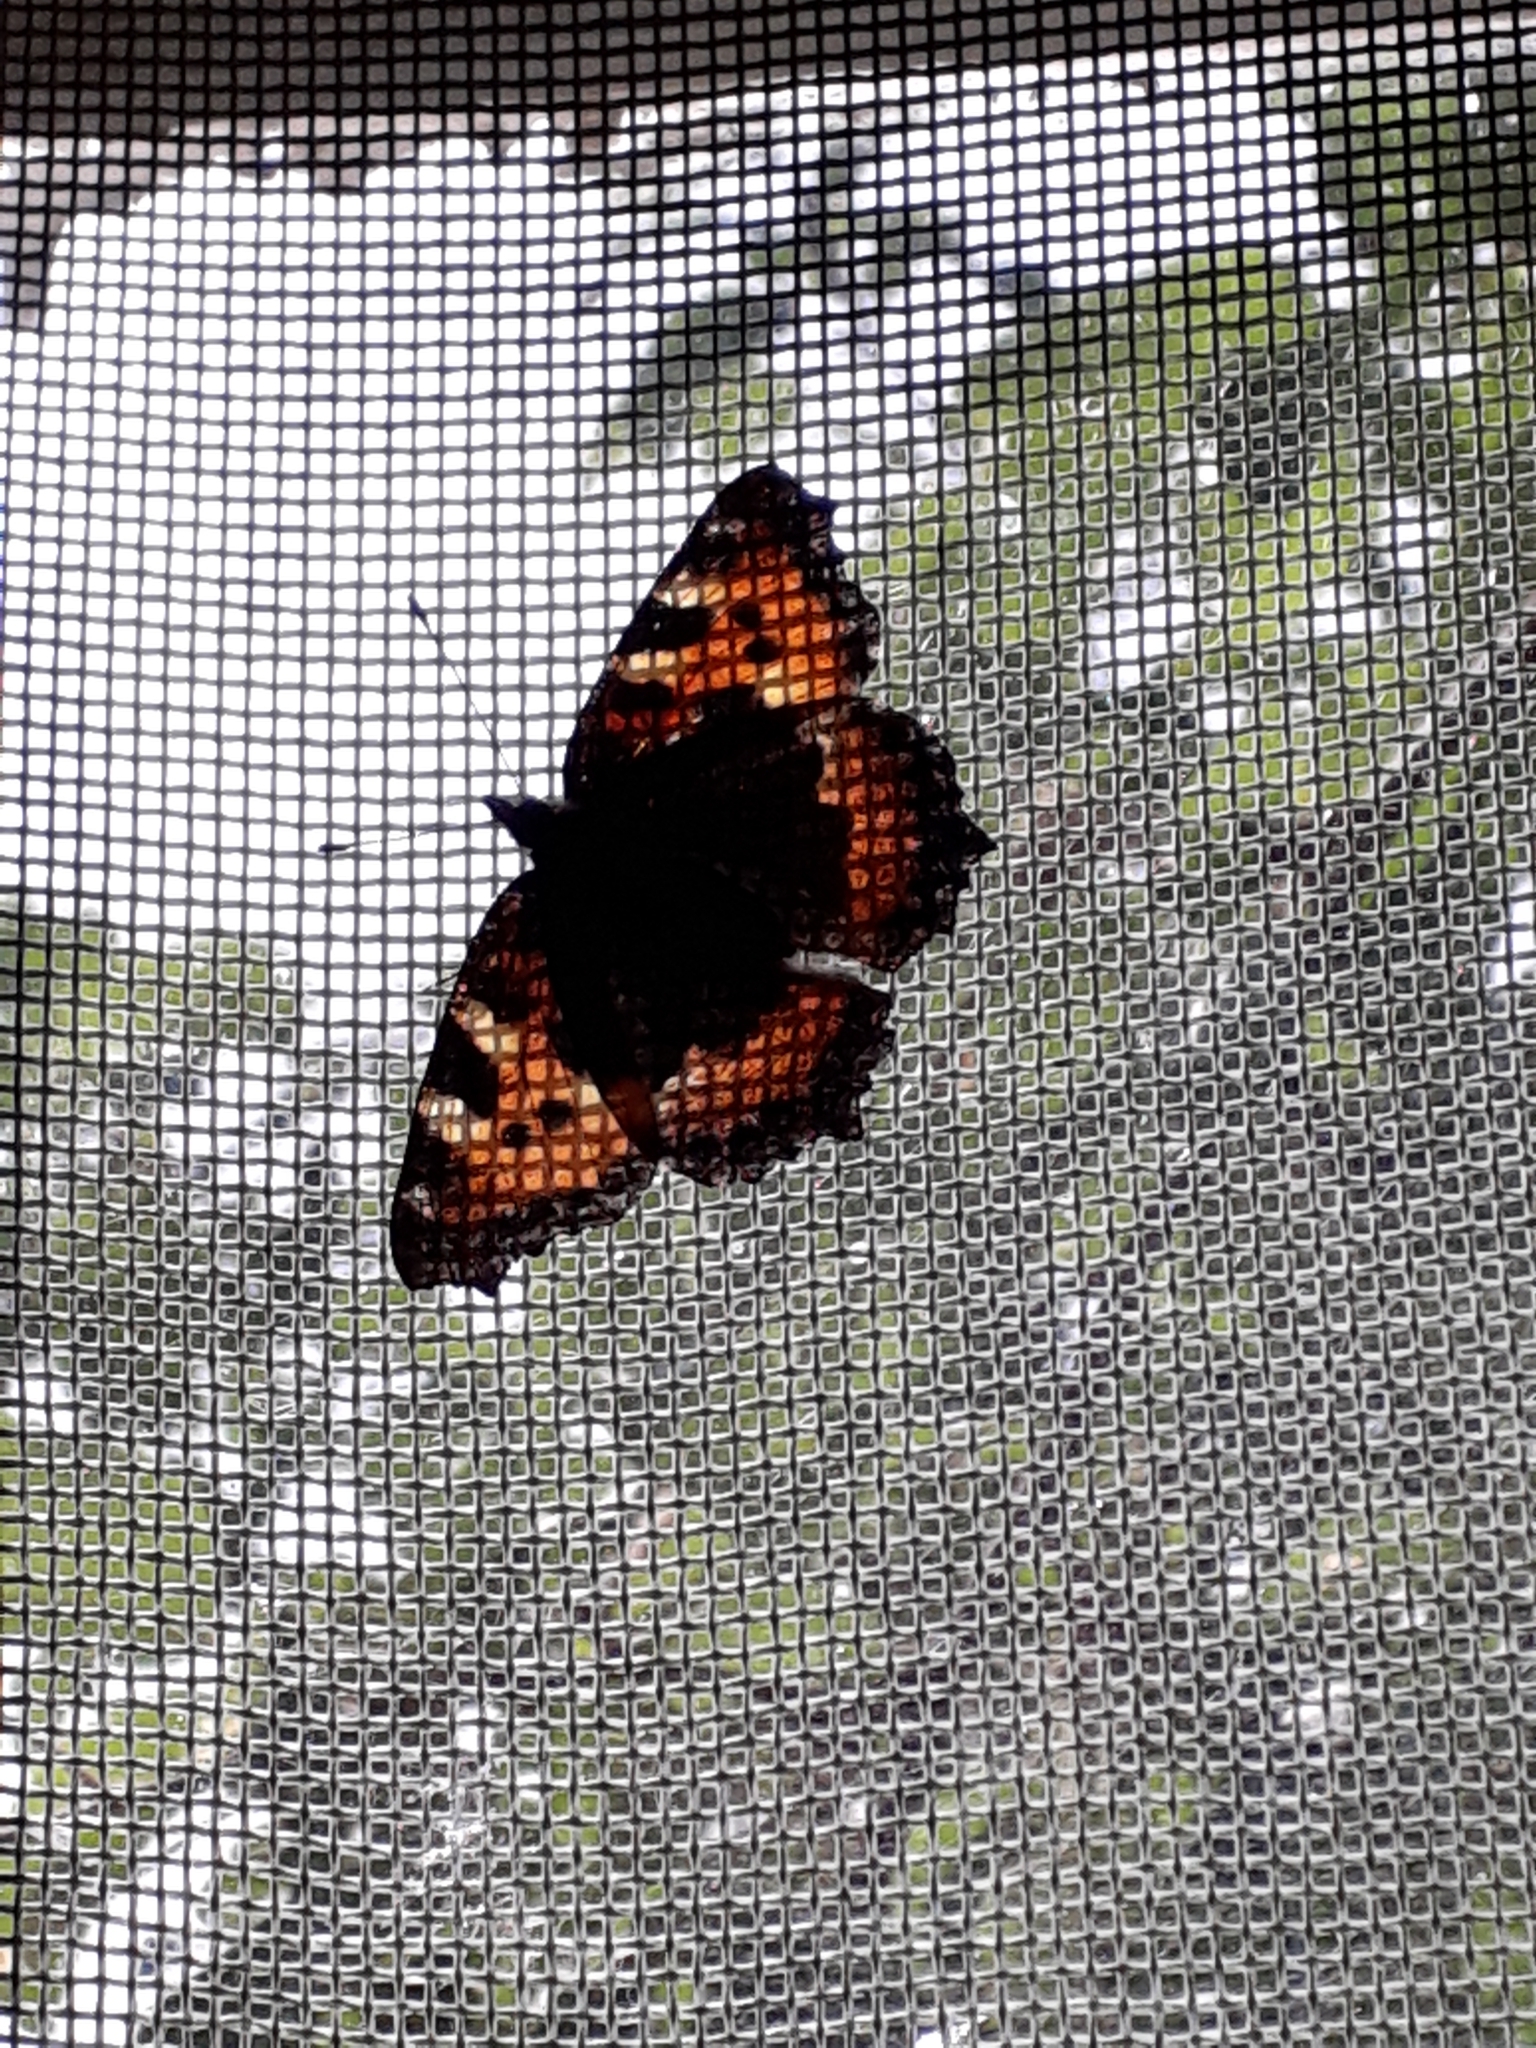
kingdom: Animalia
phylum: Arthropoda
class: Insecta
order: Lepidoptera
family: Nymphalidae
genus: Aglais
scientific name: Aglais urticae
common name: Small tortoiseshell
